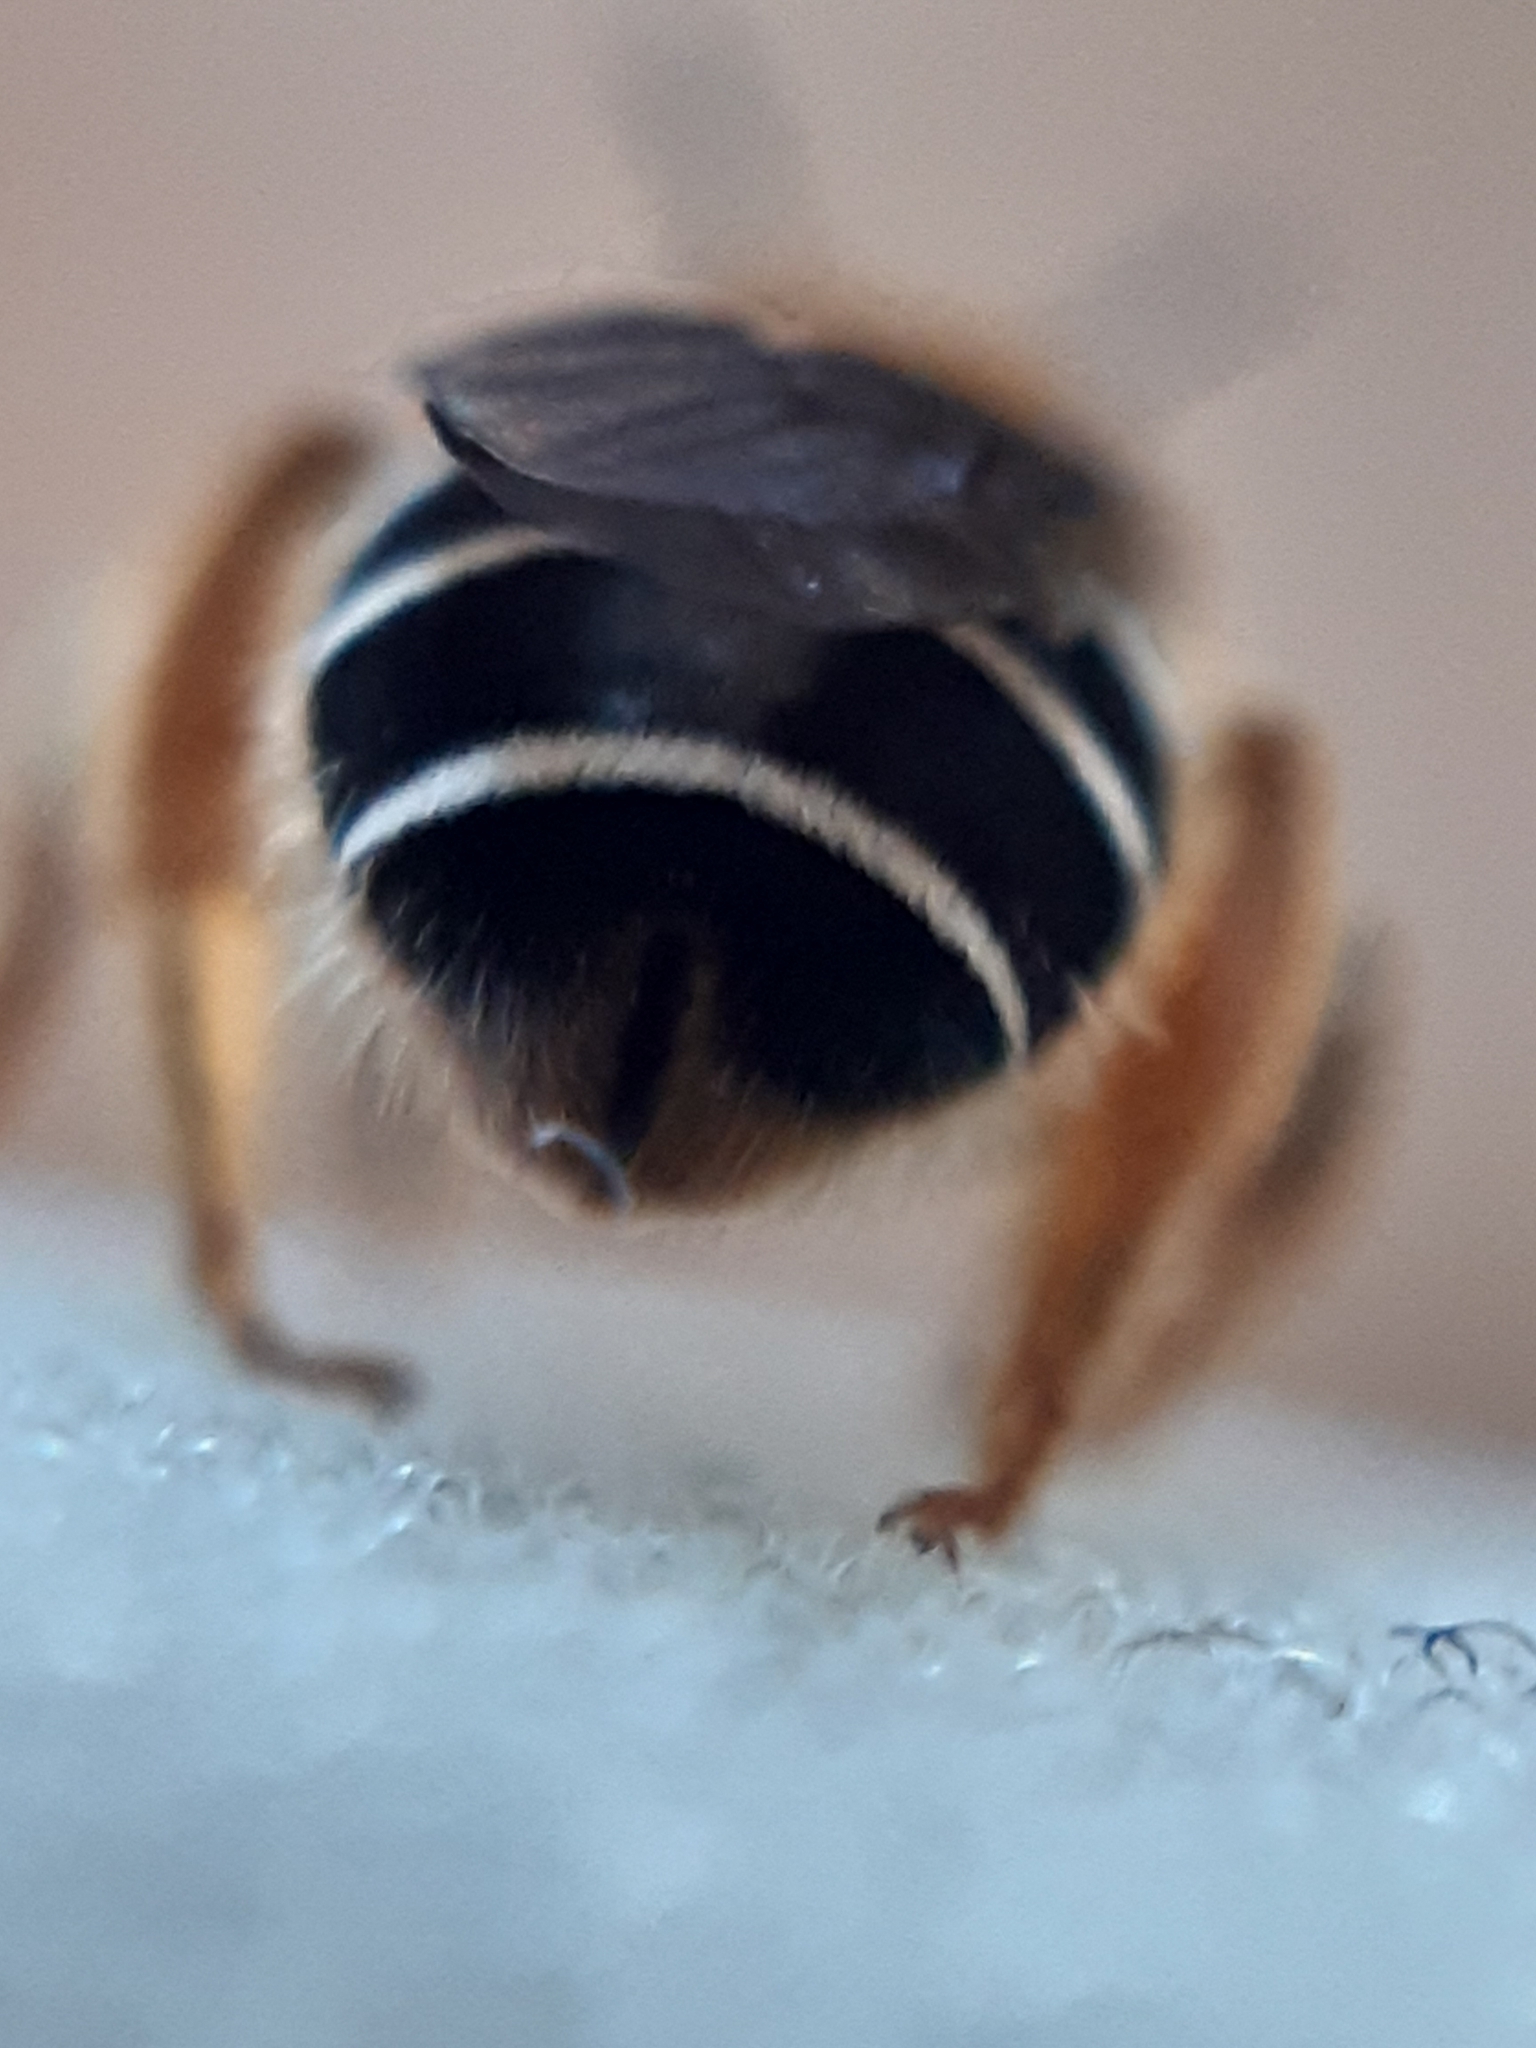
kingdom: Animalia
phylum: Arthropoda
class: Insecta
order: Hymenoptera
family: Halictidae
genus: Halictus
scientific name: Halictus rubicundus
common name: Orange-legged furrow bee
